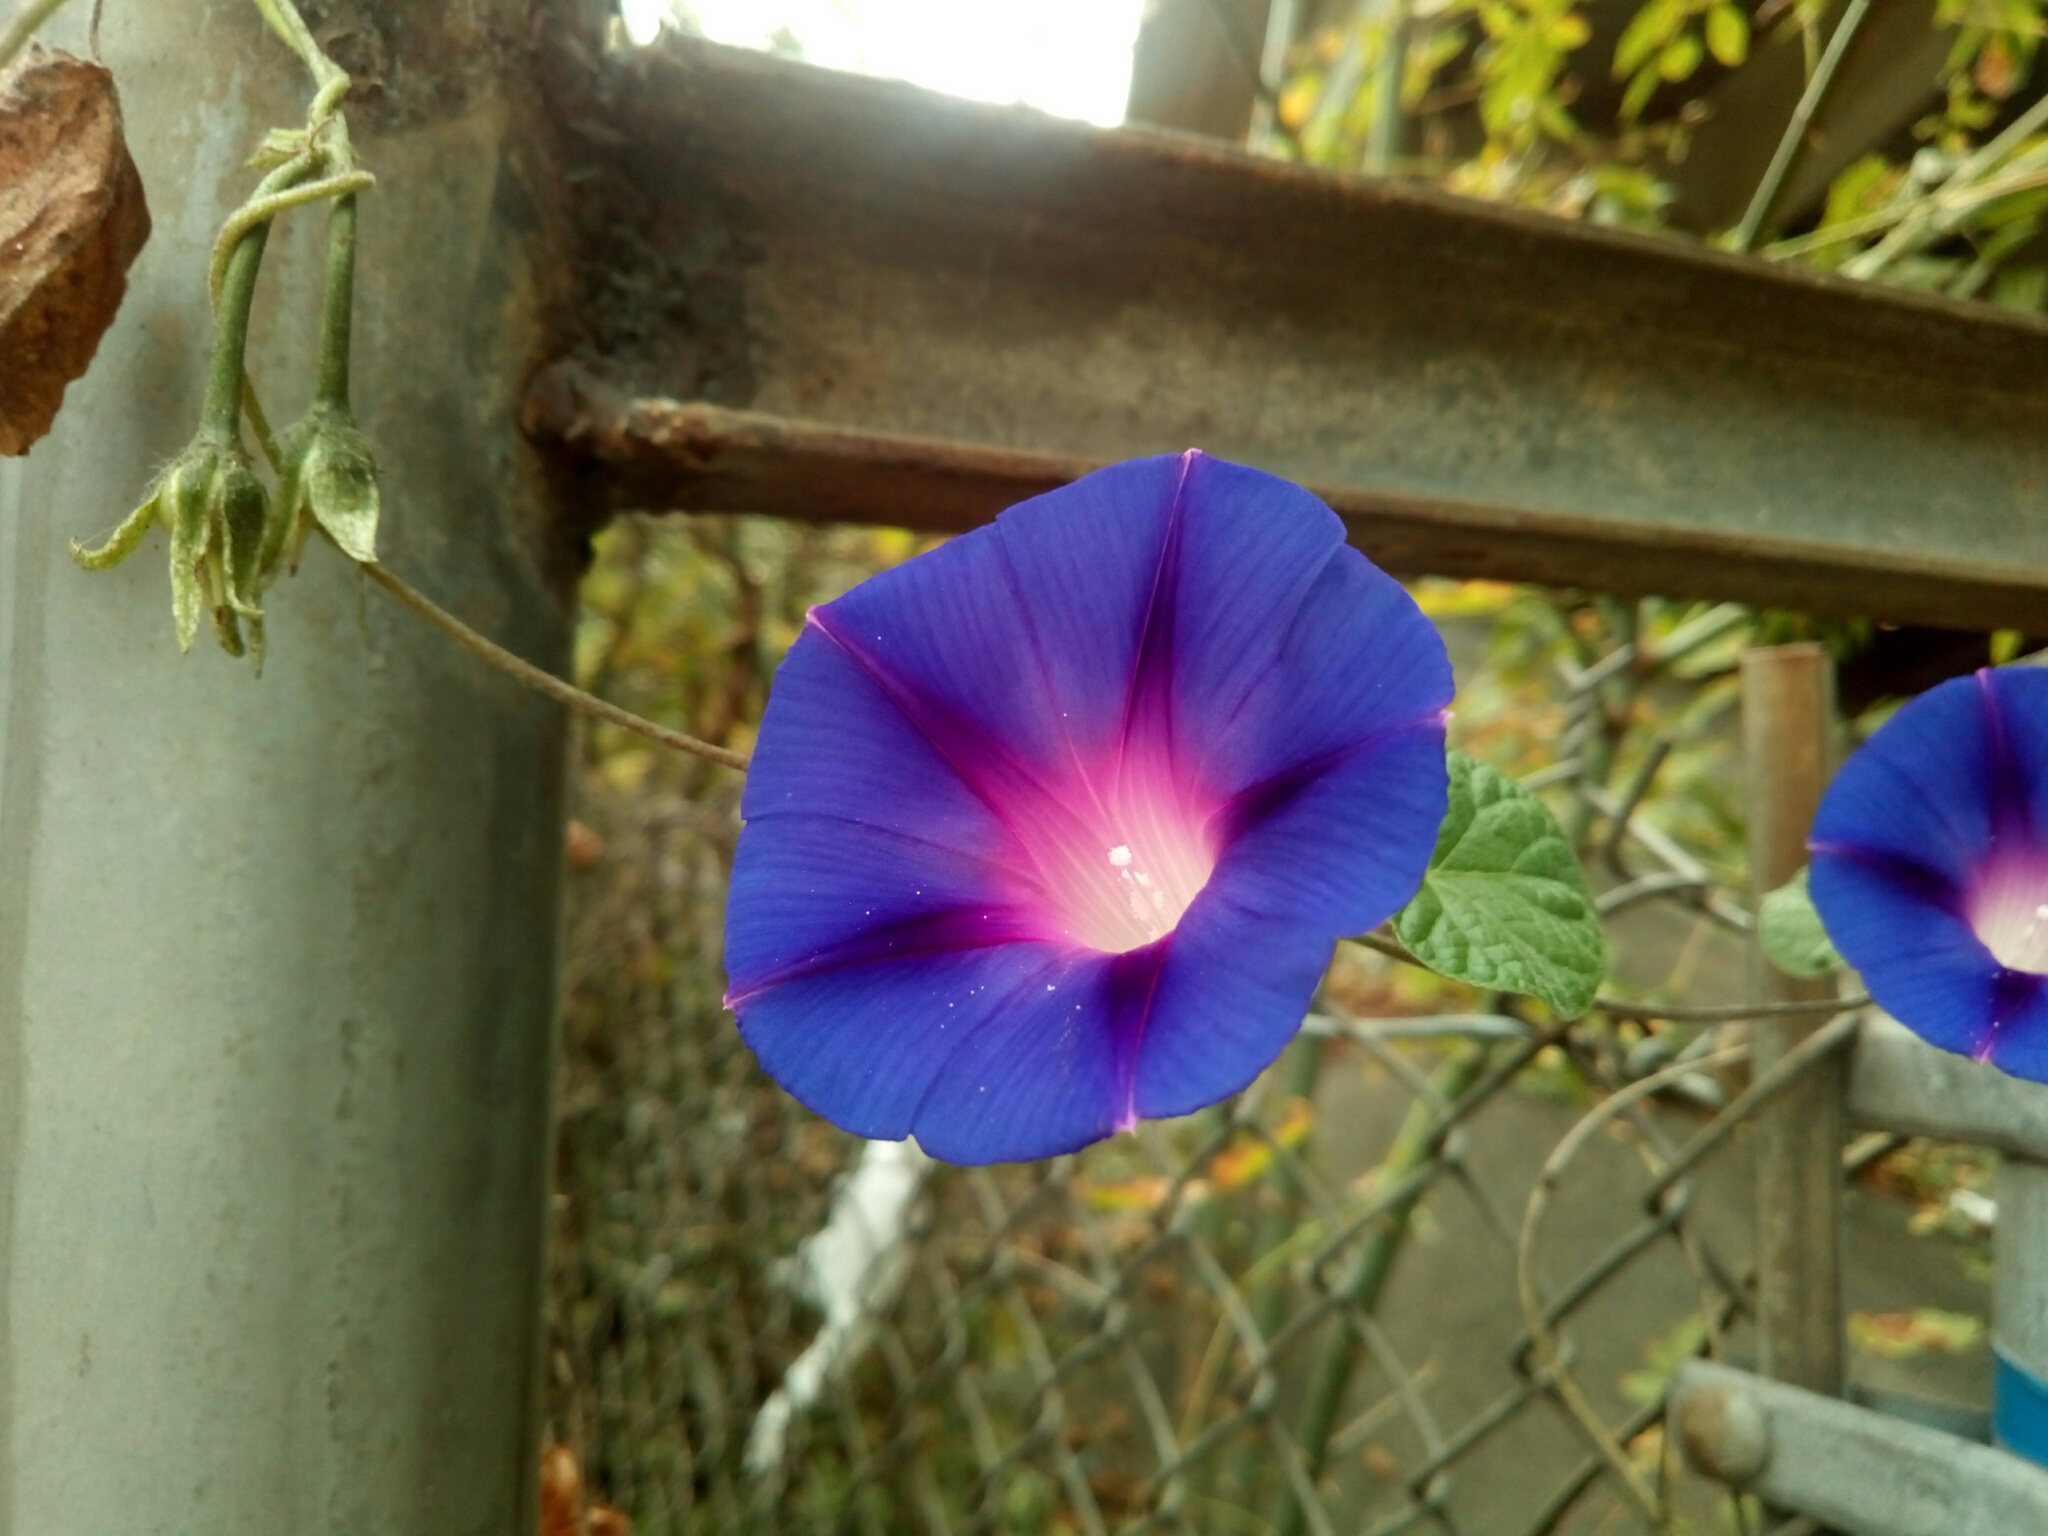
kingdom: Plantae
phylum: Tracheophyta
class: Magnoliopsida
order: Solanales
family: Convolvulaceae
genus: Ipomoea
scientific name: Ipomoea purpurea
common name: Common morning-glory
